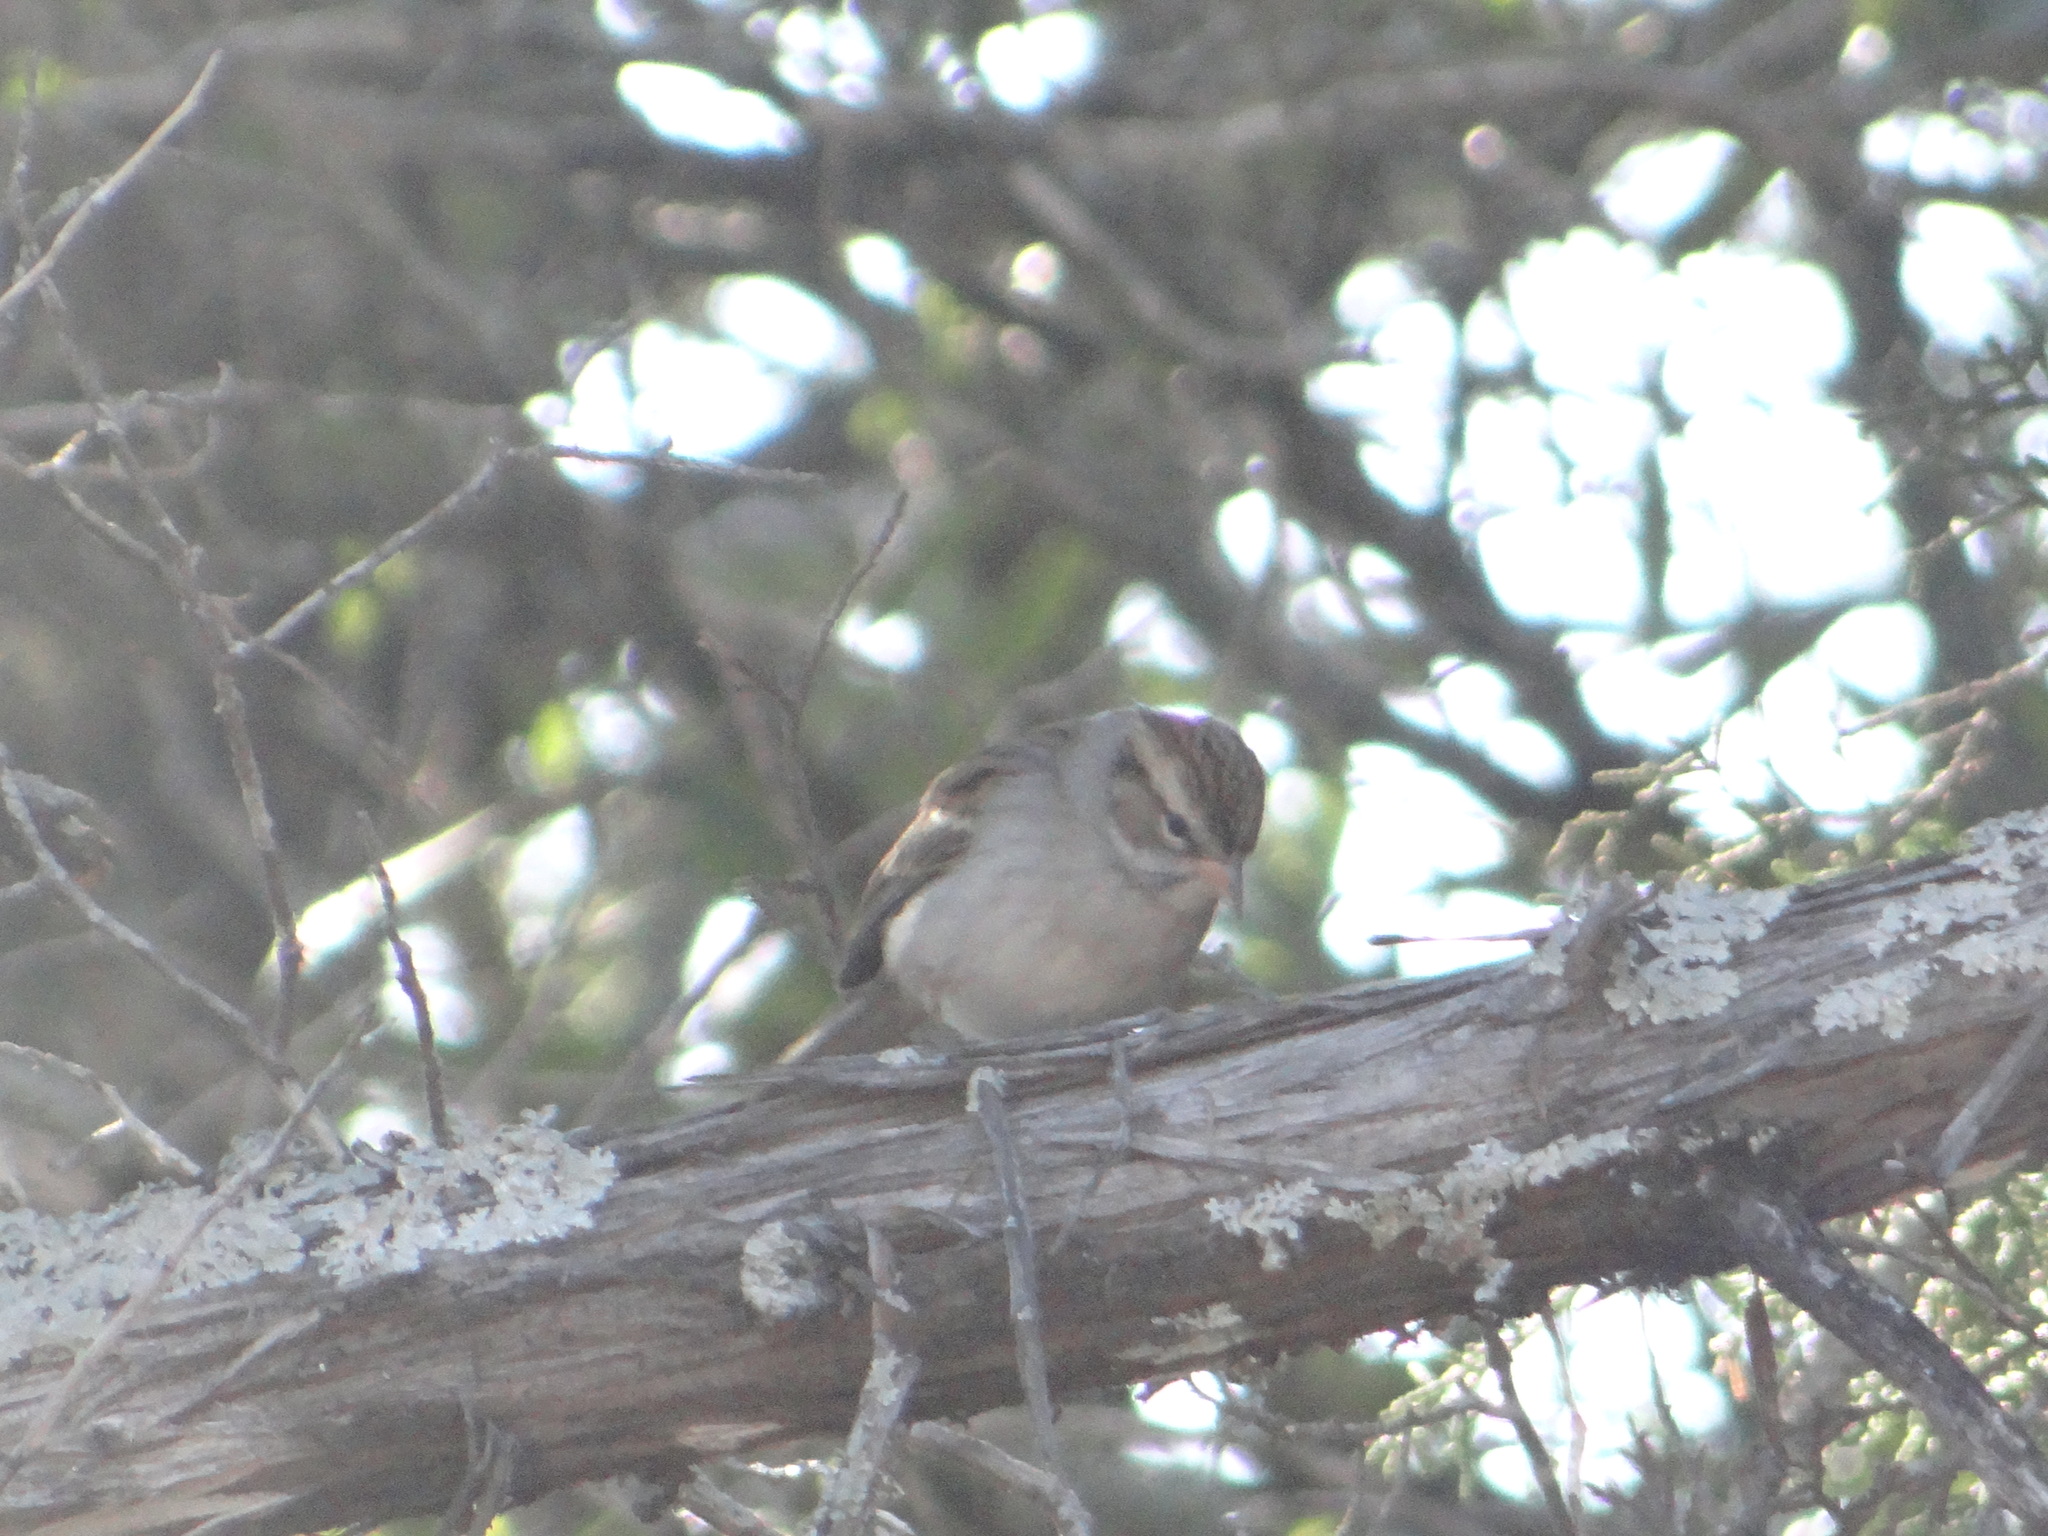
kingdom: Animalia
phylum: Chordata
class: Aves
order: Passeriformes
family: Passerellidae
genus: Spizella
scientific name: Spizella passerina
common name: Chipping sparrow
